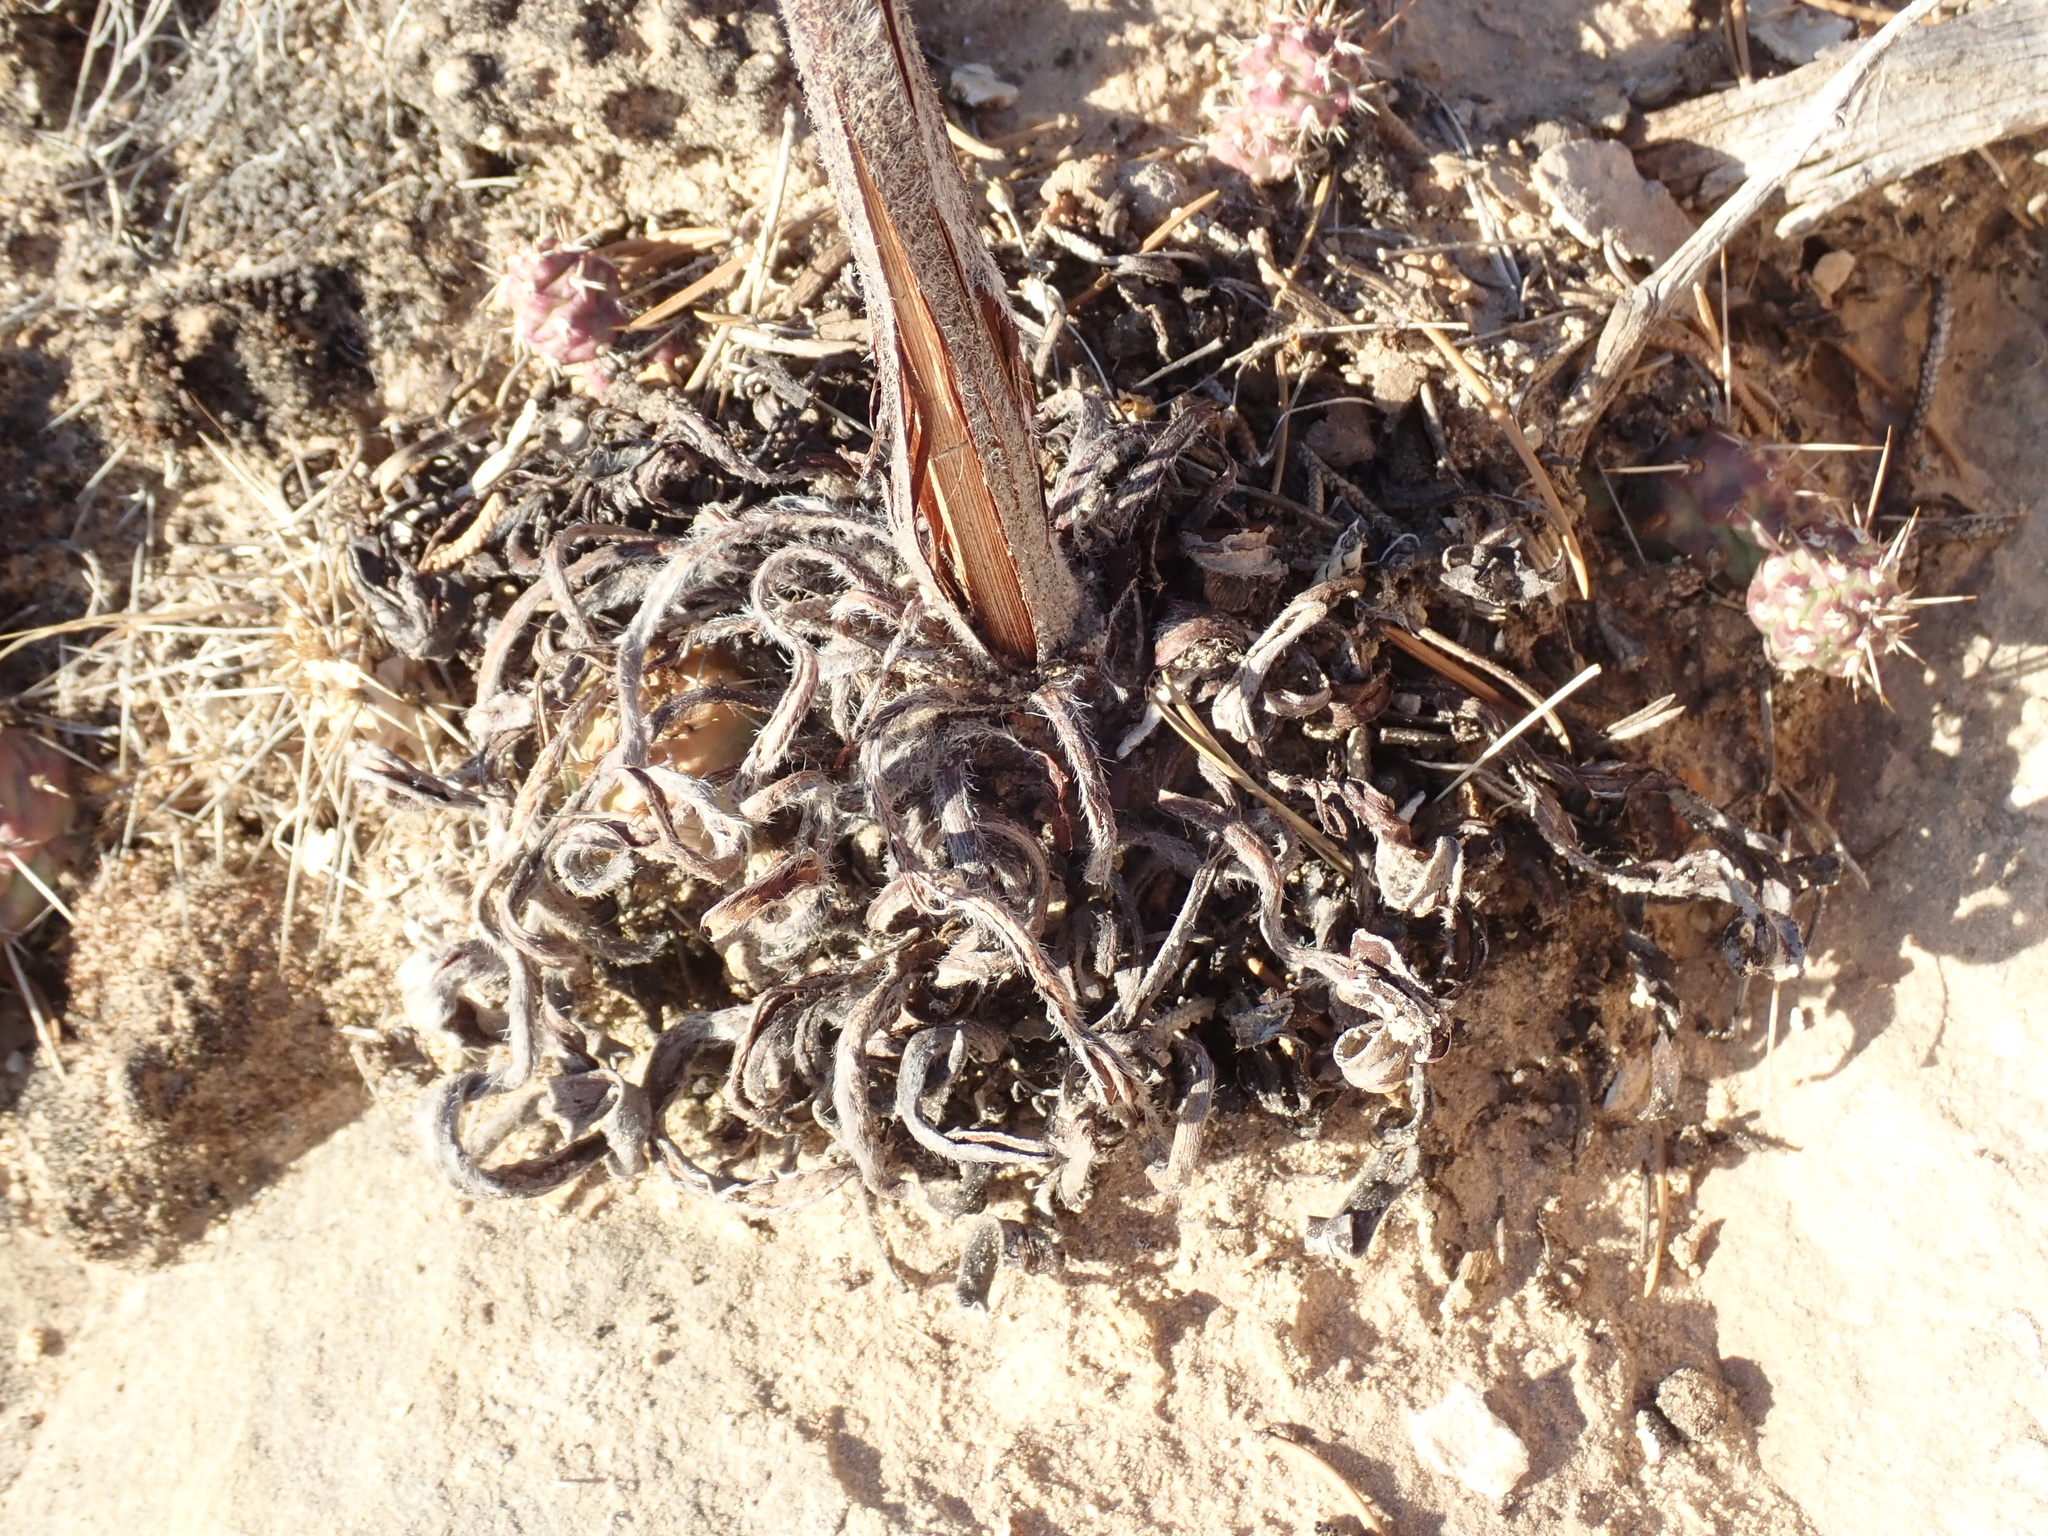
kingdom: Plantae
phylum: Tracheophyta
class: Magnoliopsida
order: Caryophyllales
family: Polygonaceae
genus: Eriogonum
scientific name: Eriogonum alatum
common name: Winged eriogonum
